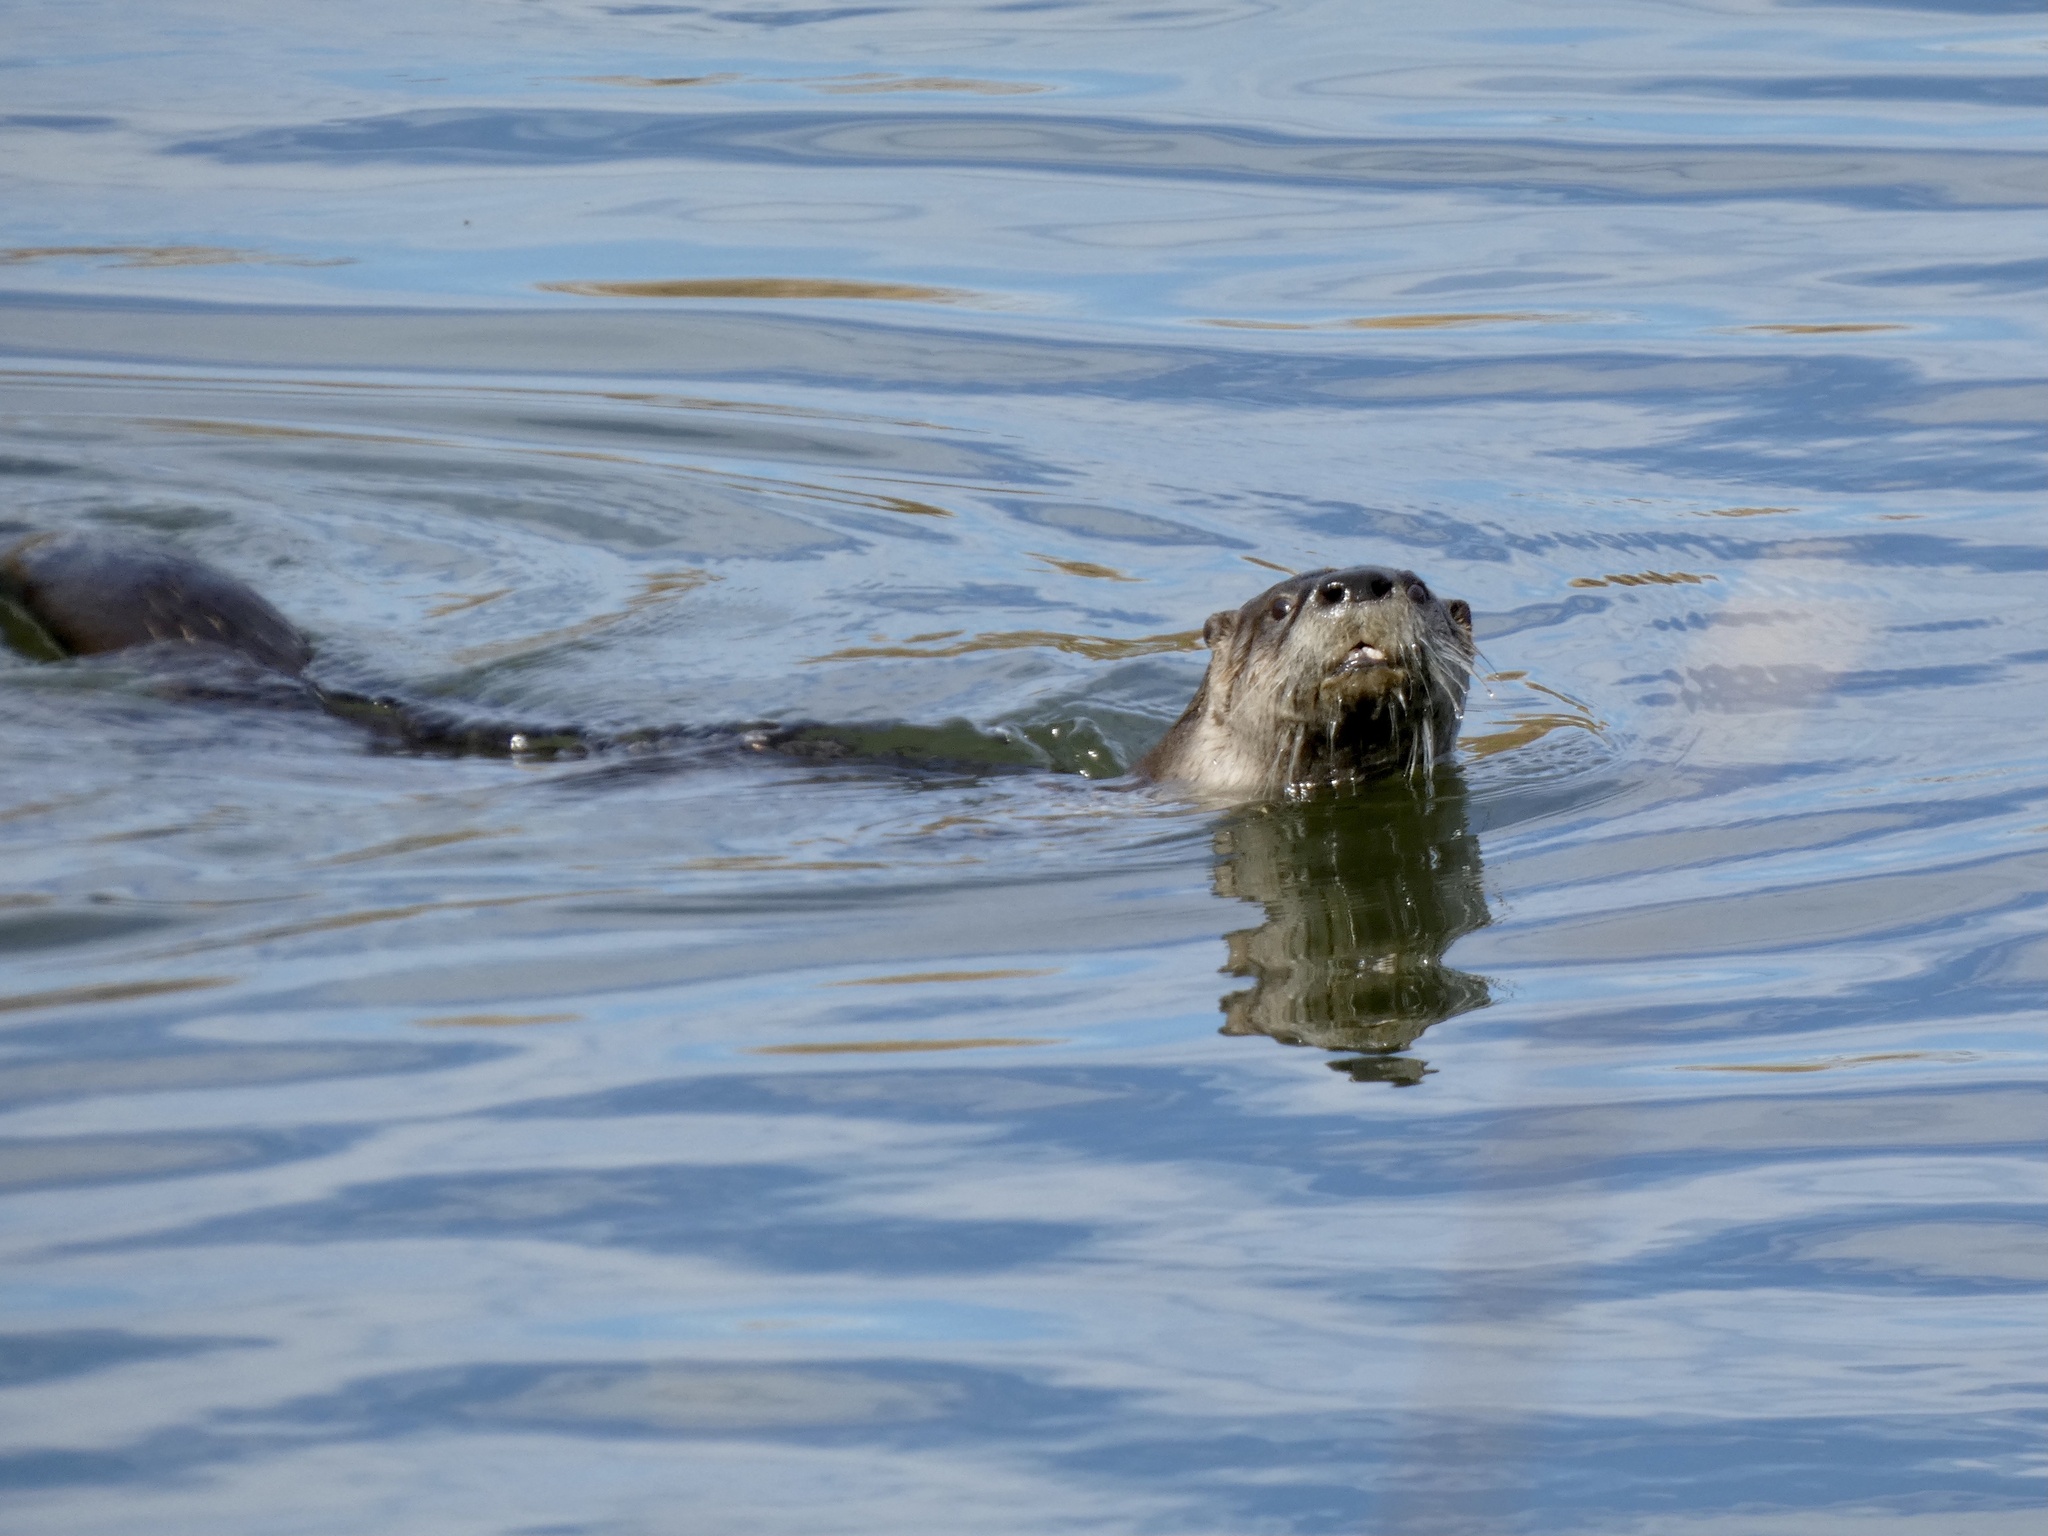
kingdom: Animalia
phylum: Chordata
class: Mammalia
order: Carnivora
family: Mustelidae
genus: Lontra
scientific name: Lontra canadensis
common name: North american river otter
